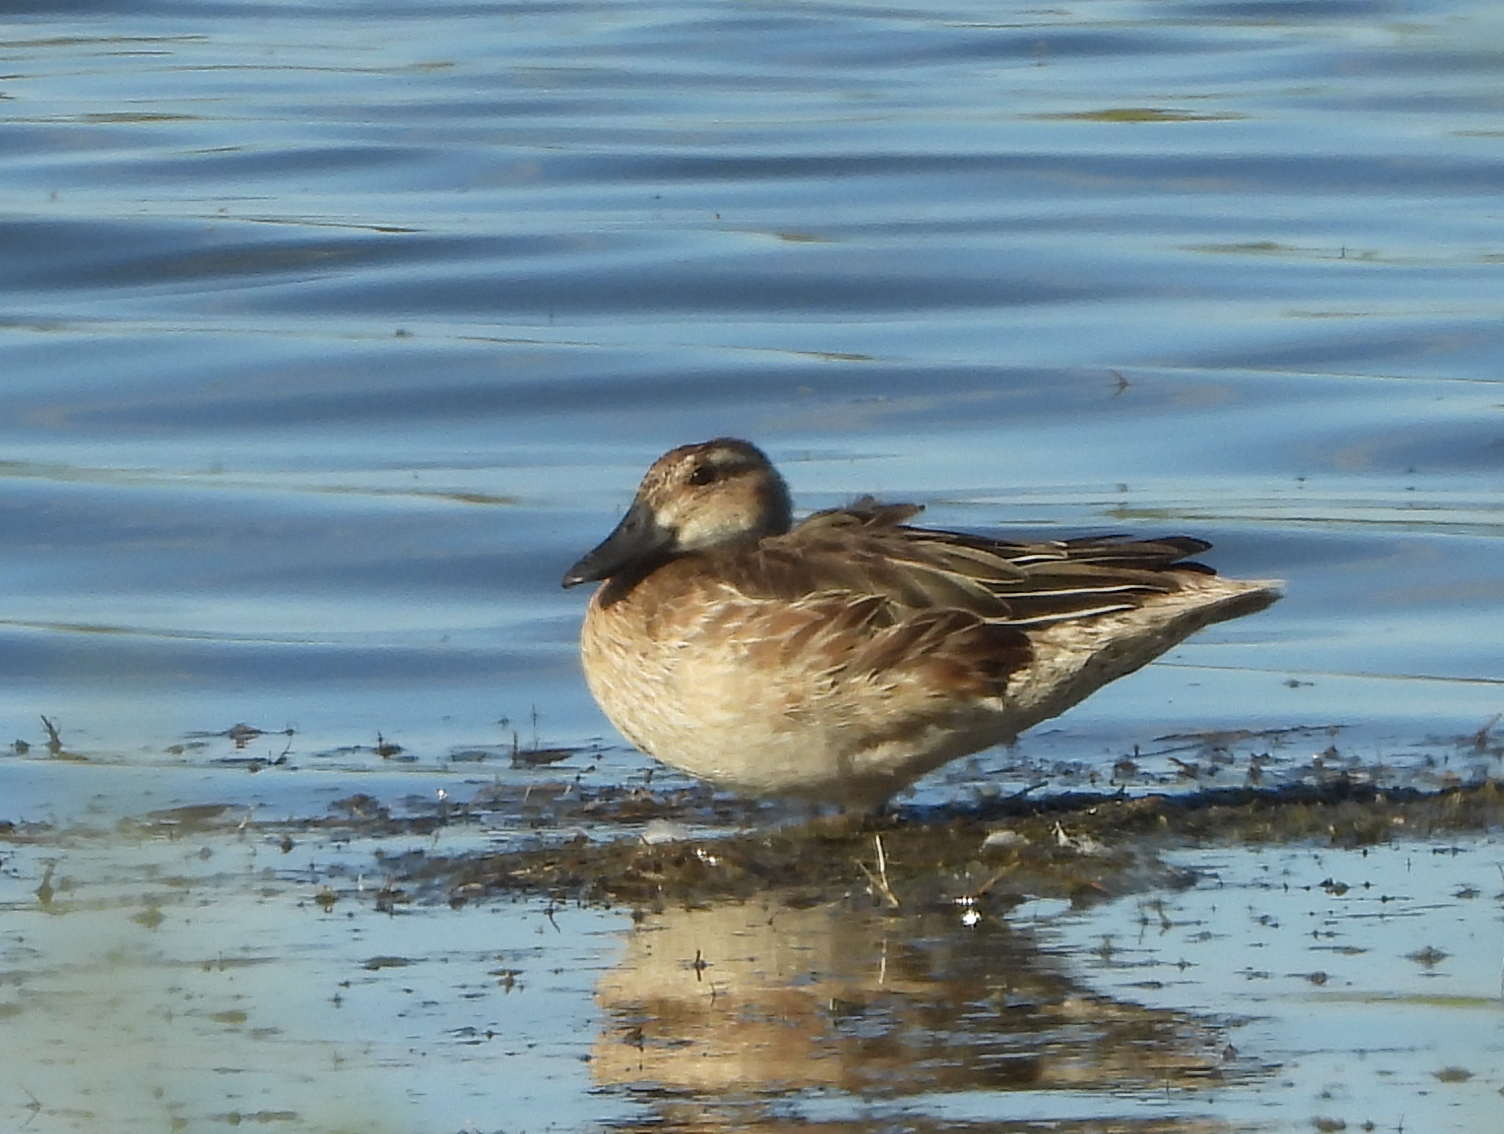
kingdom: Animalia
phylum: Chordata
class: Aves
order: Anseriformes
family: Anatidae
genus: Spatula
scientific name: Spatula querquedula
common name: Garganey
